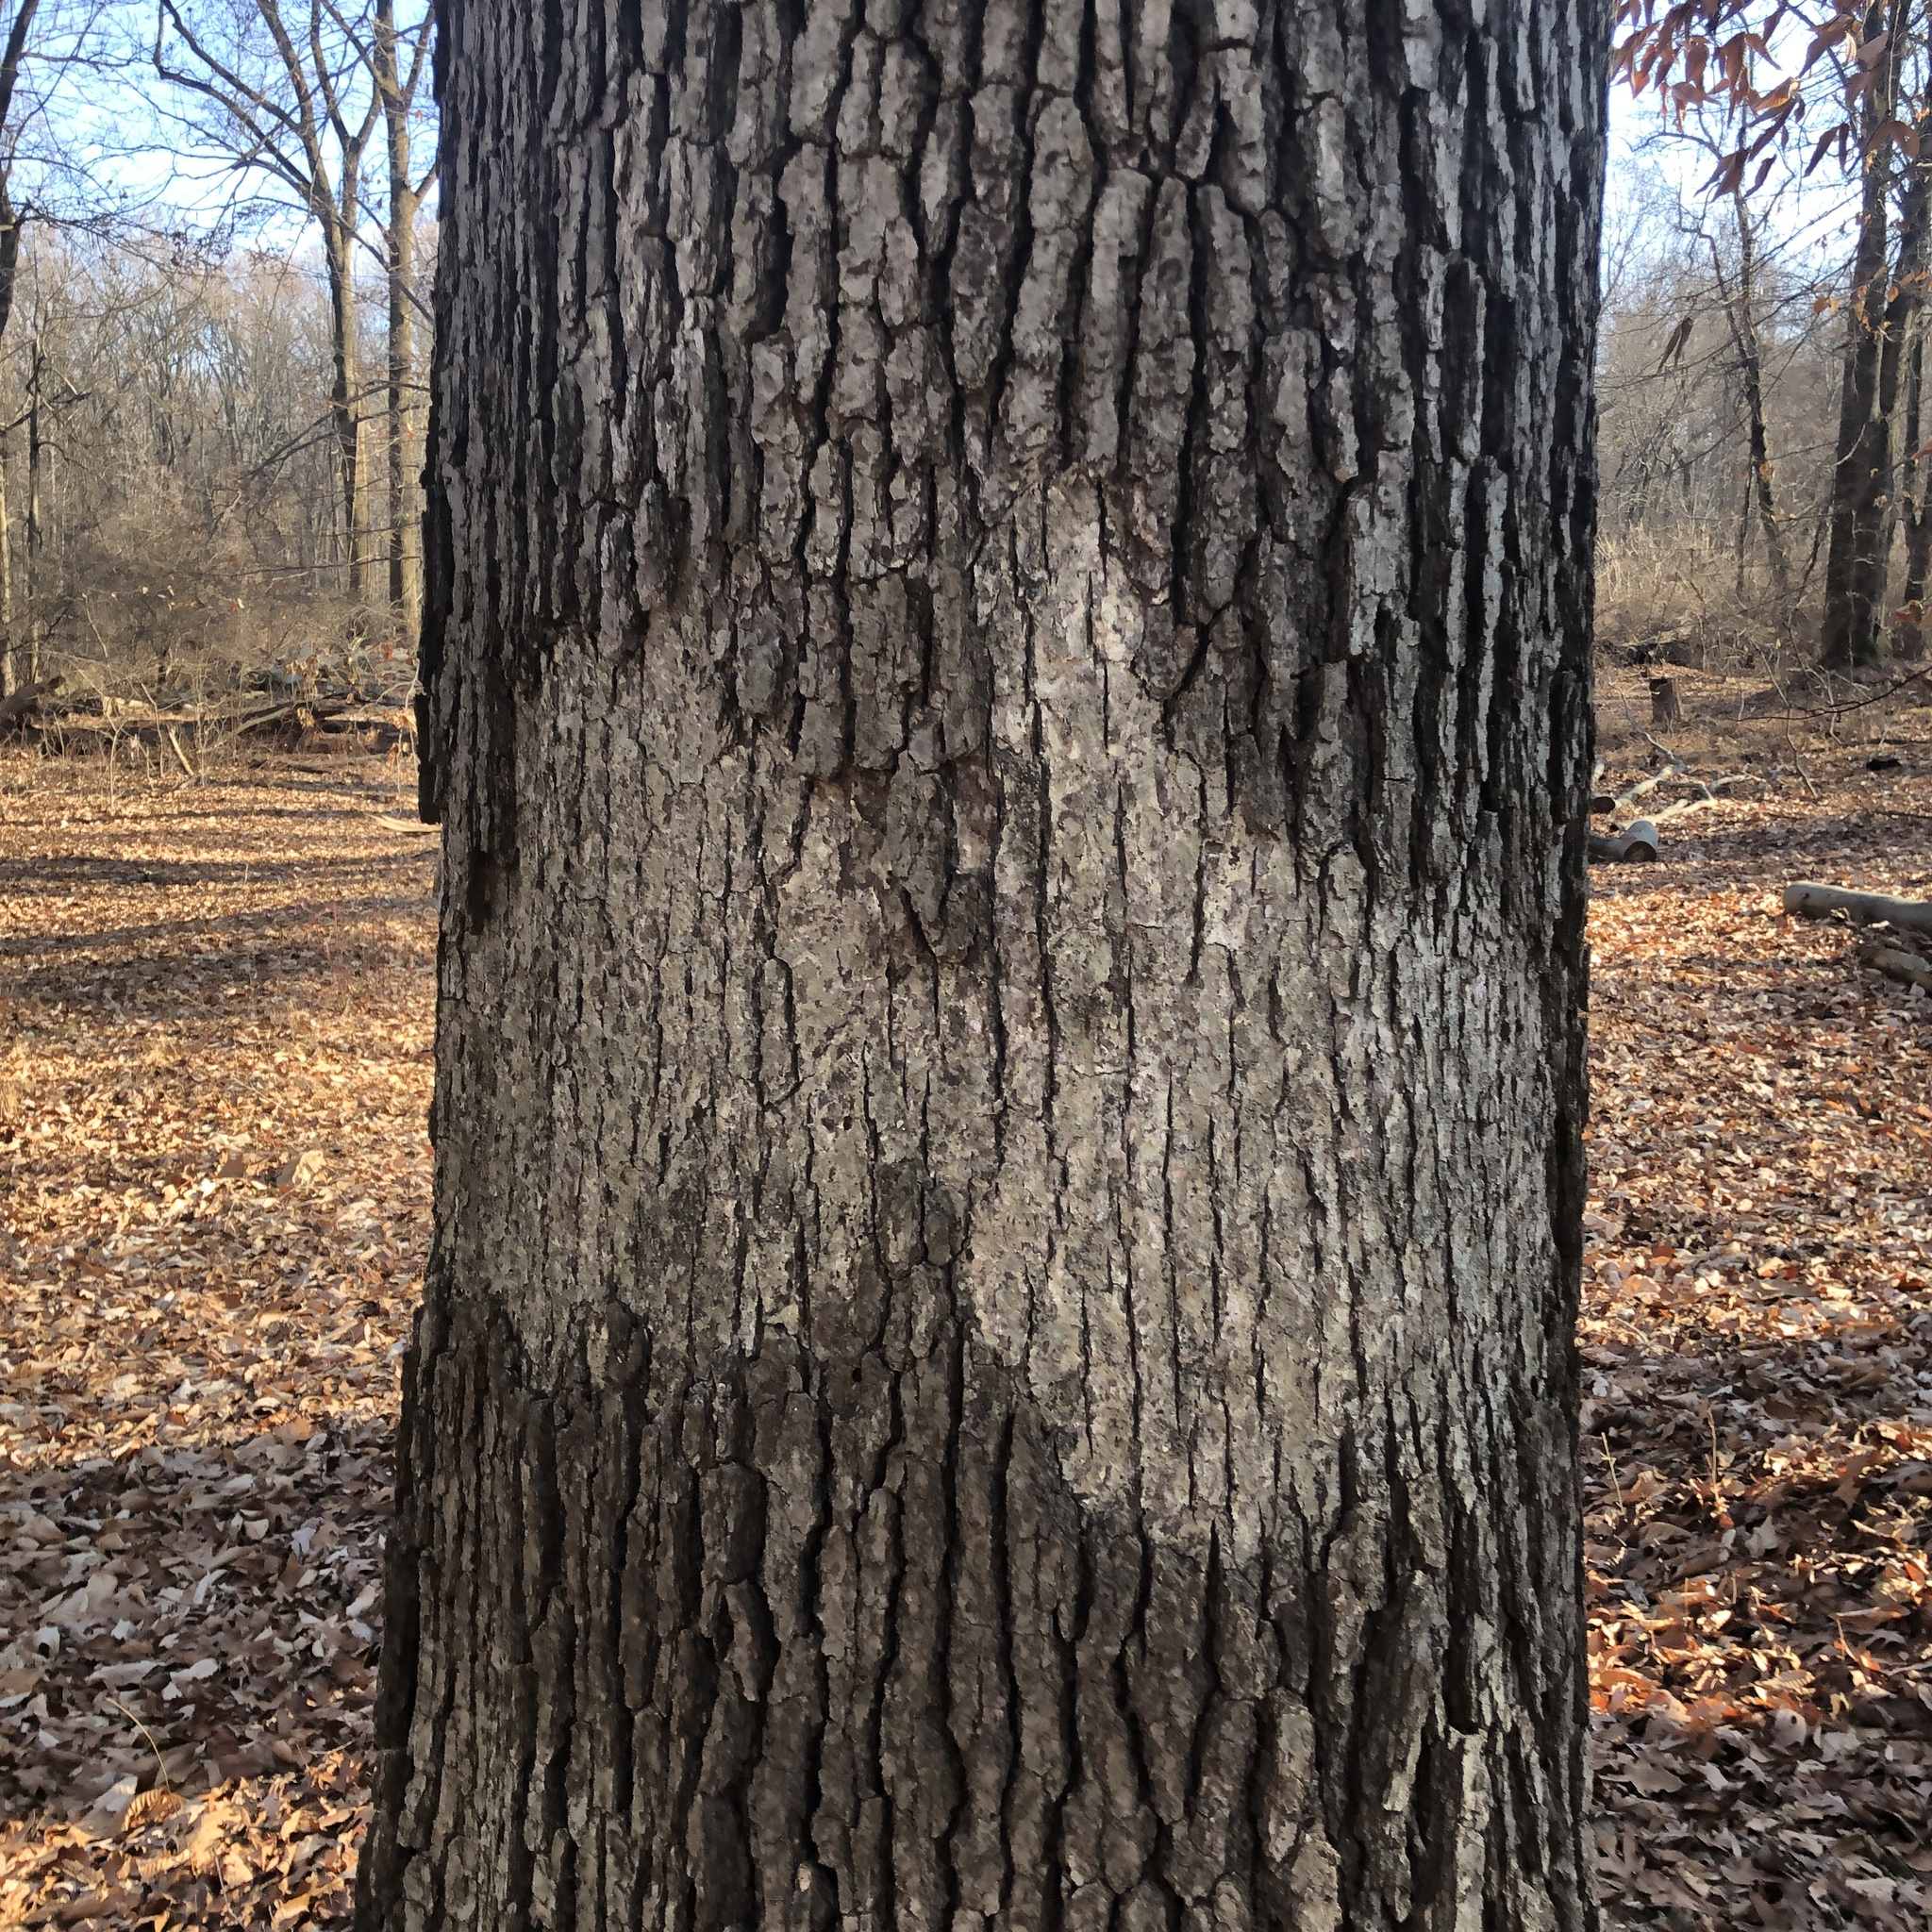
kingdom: Fungi
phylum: Basidiomycota
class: Agaricomycetes
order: Russulales
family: Stereaceae
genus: Acanthophysium
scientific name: Acanthophysium oakesii
